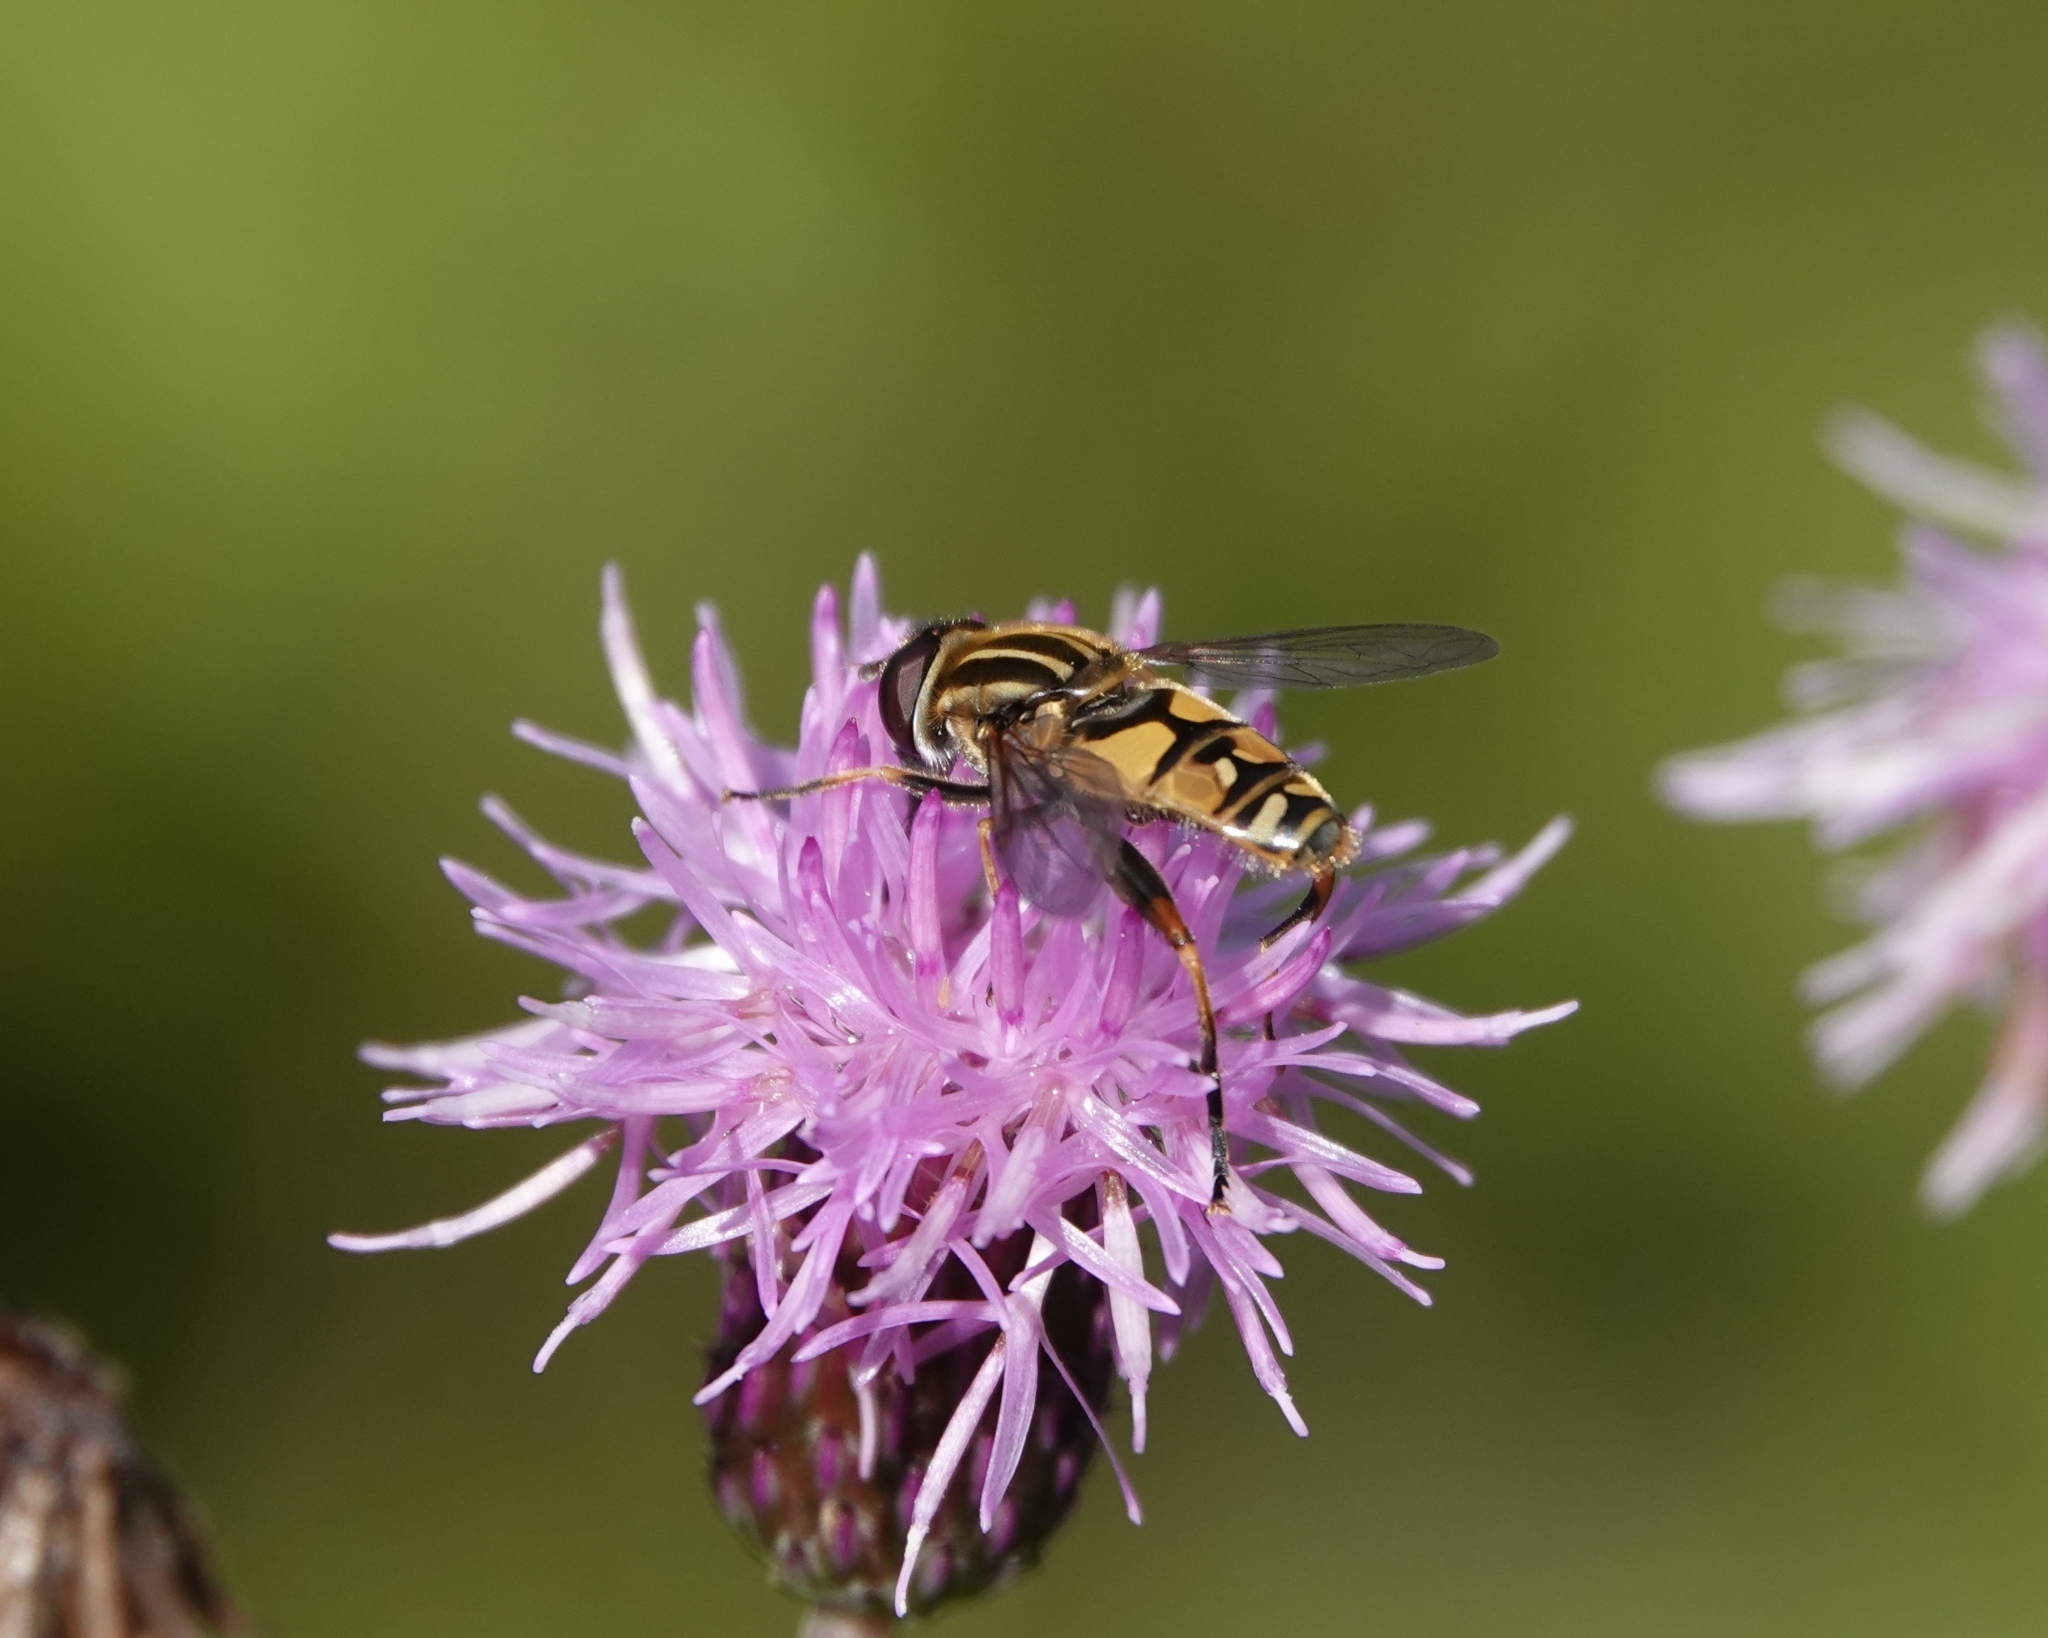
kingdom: Animalia
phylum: Arthropoda
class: Insecta
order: Diptera
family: Syrphidae
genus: Helophilus
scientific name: Helophilus pendulus
